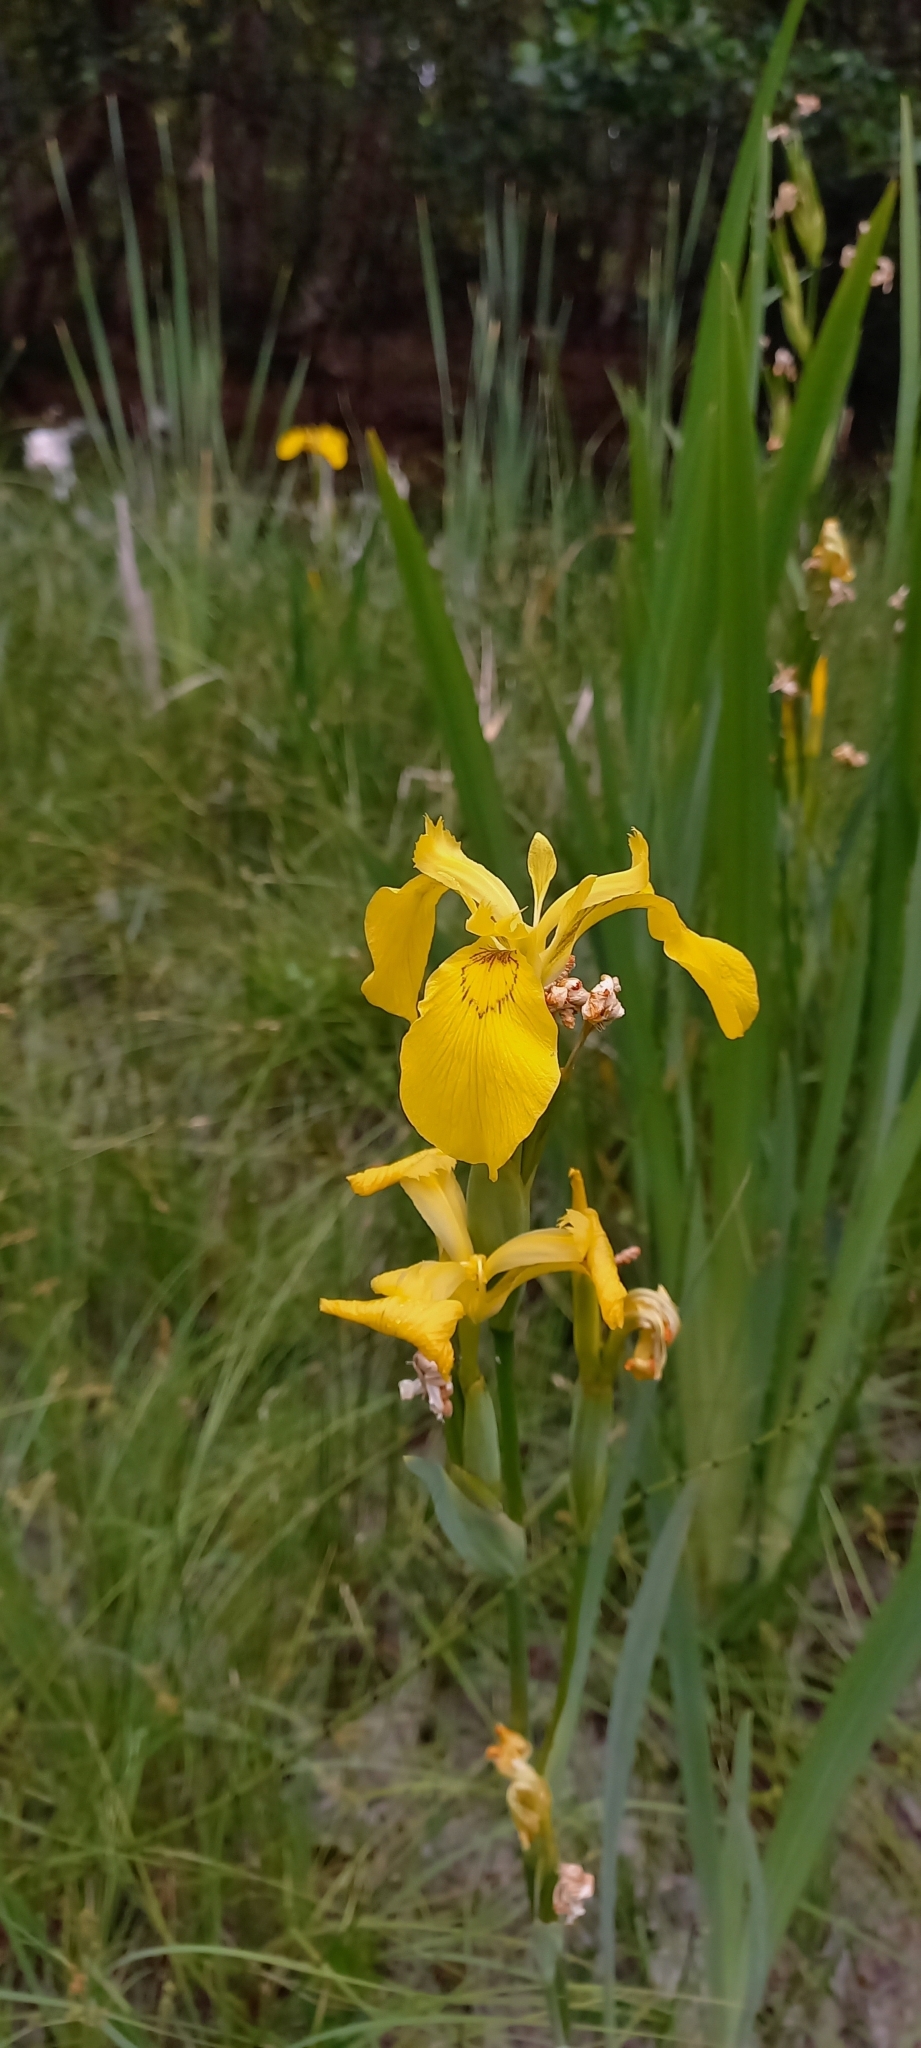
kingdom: Plantae
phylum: Tracheophyta
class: Liliopsida
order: Asparagales
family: Iridaceae
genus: Iris
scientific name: Iris pseudacorus
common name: Yellow flag
